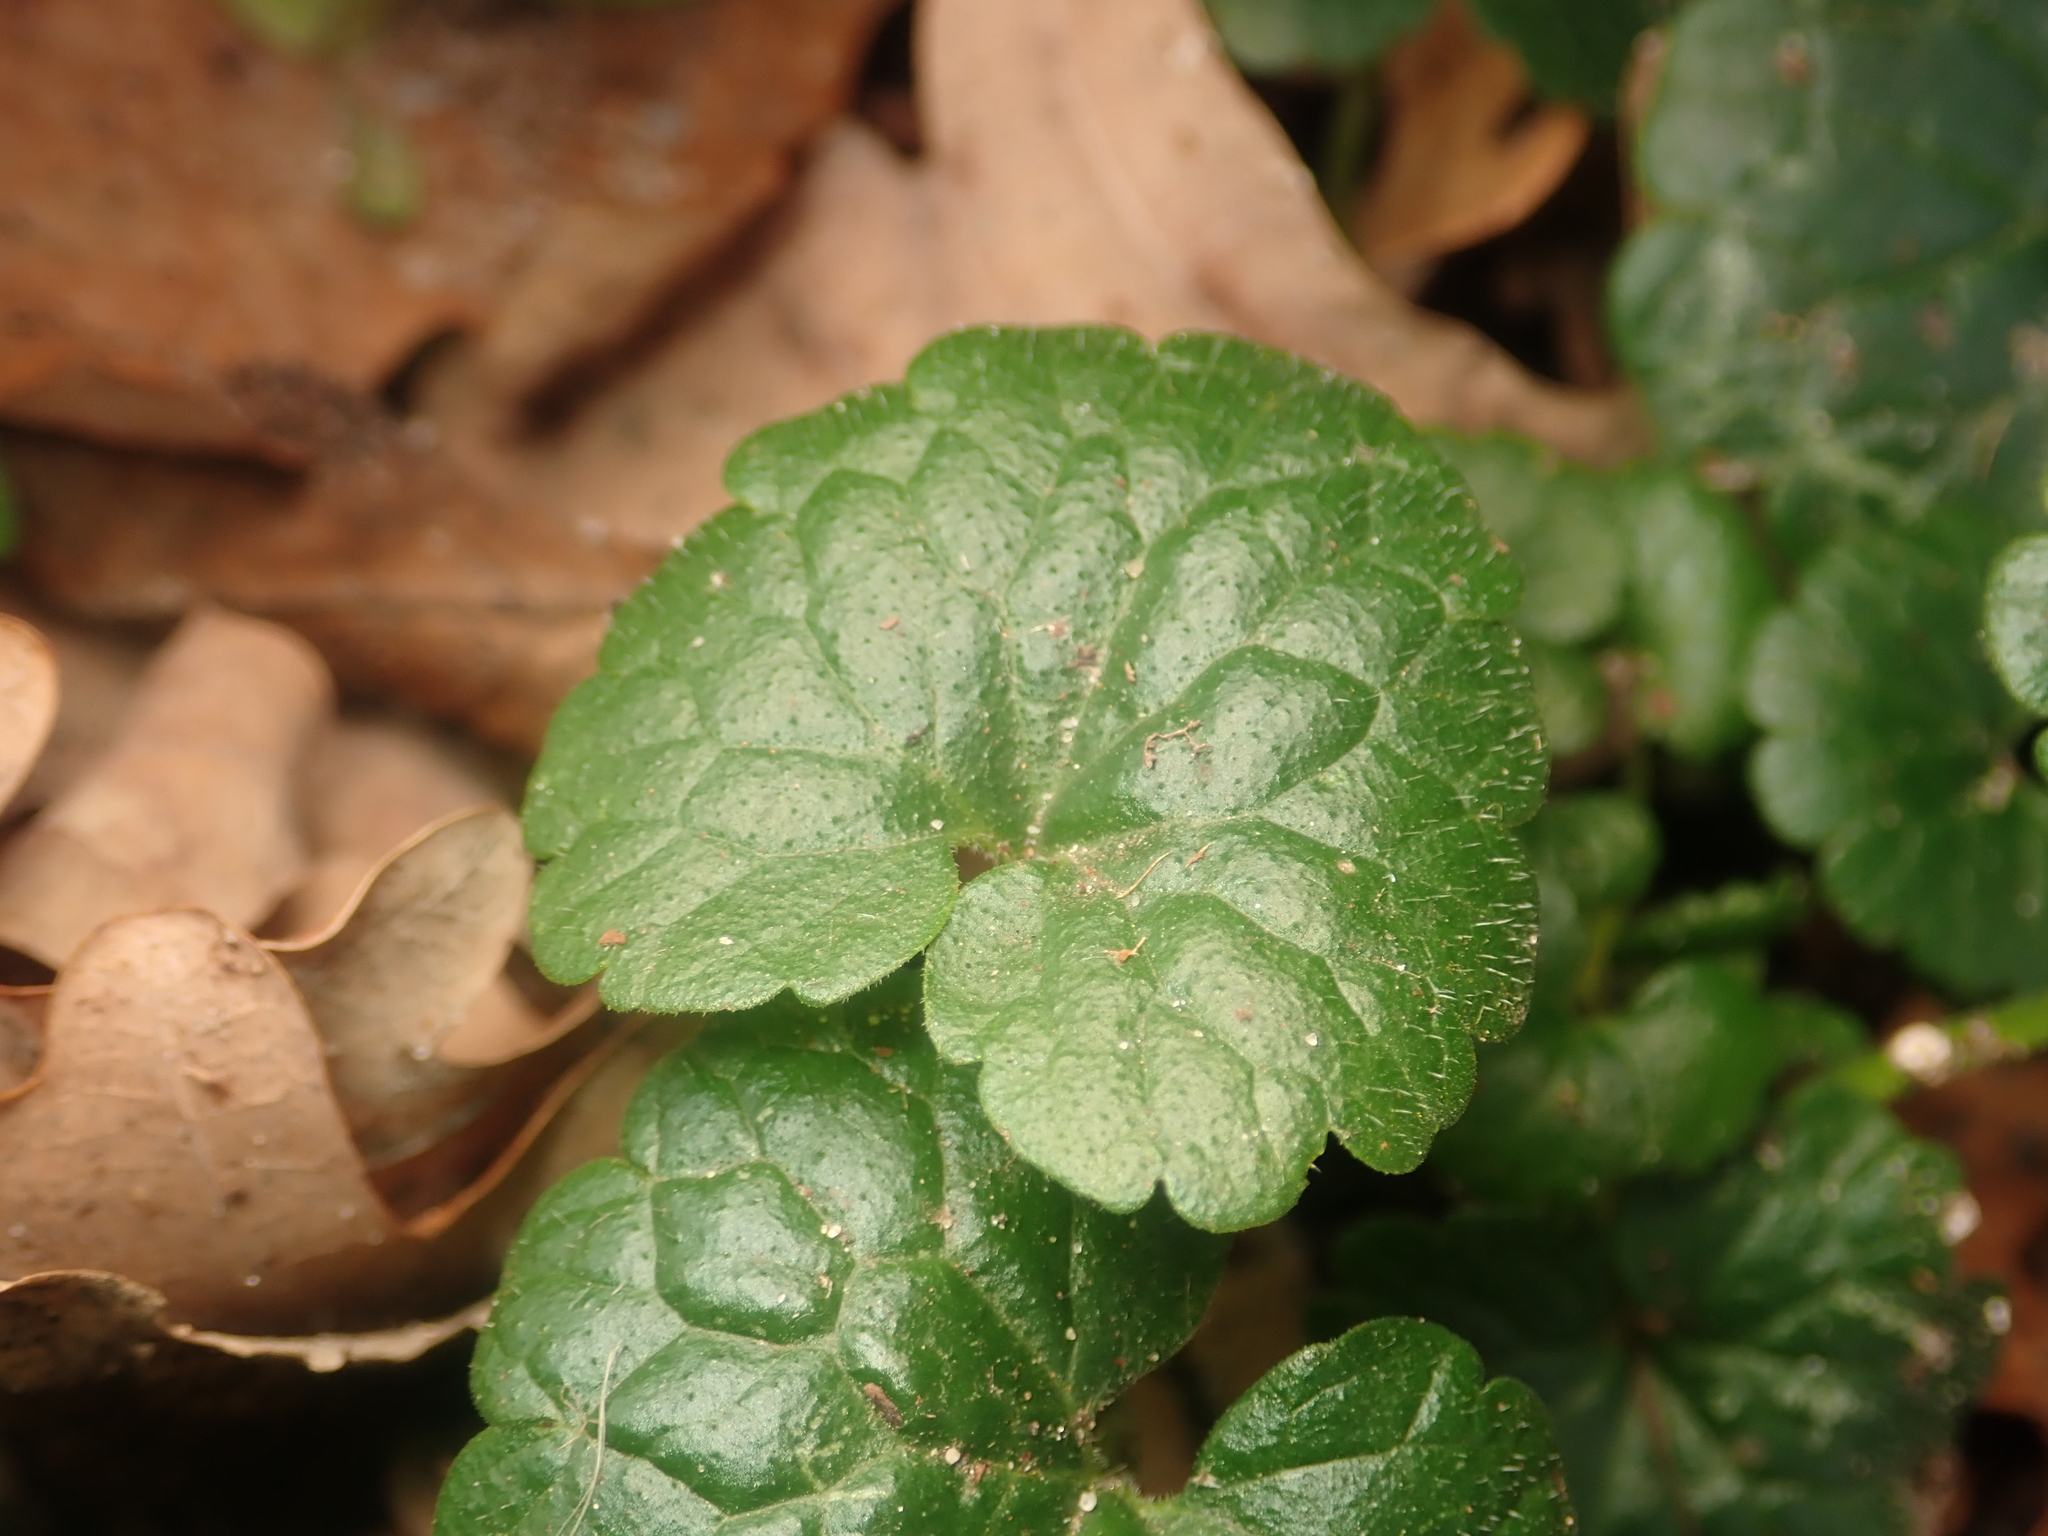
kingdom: Plantae
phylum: Tracheophyta
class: Magnoliopsida
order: Lamiales
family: Lamiaceae
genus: Glechoma
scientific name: Glechoma hederacea
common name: Ground ivy
